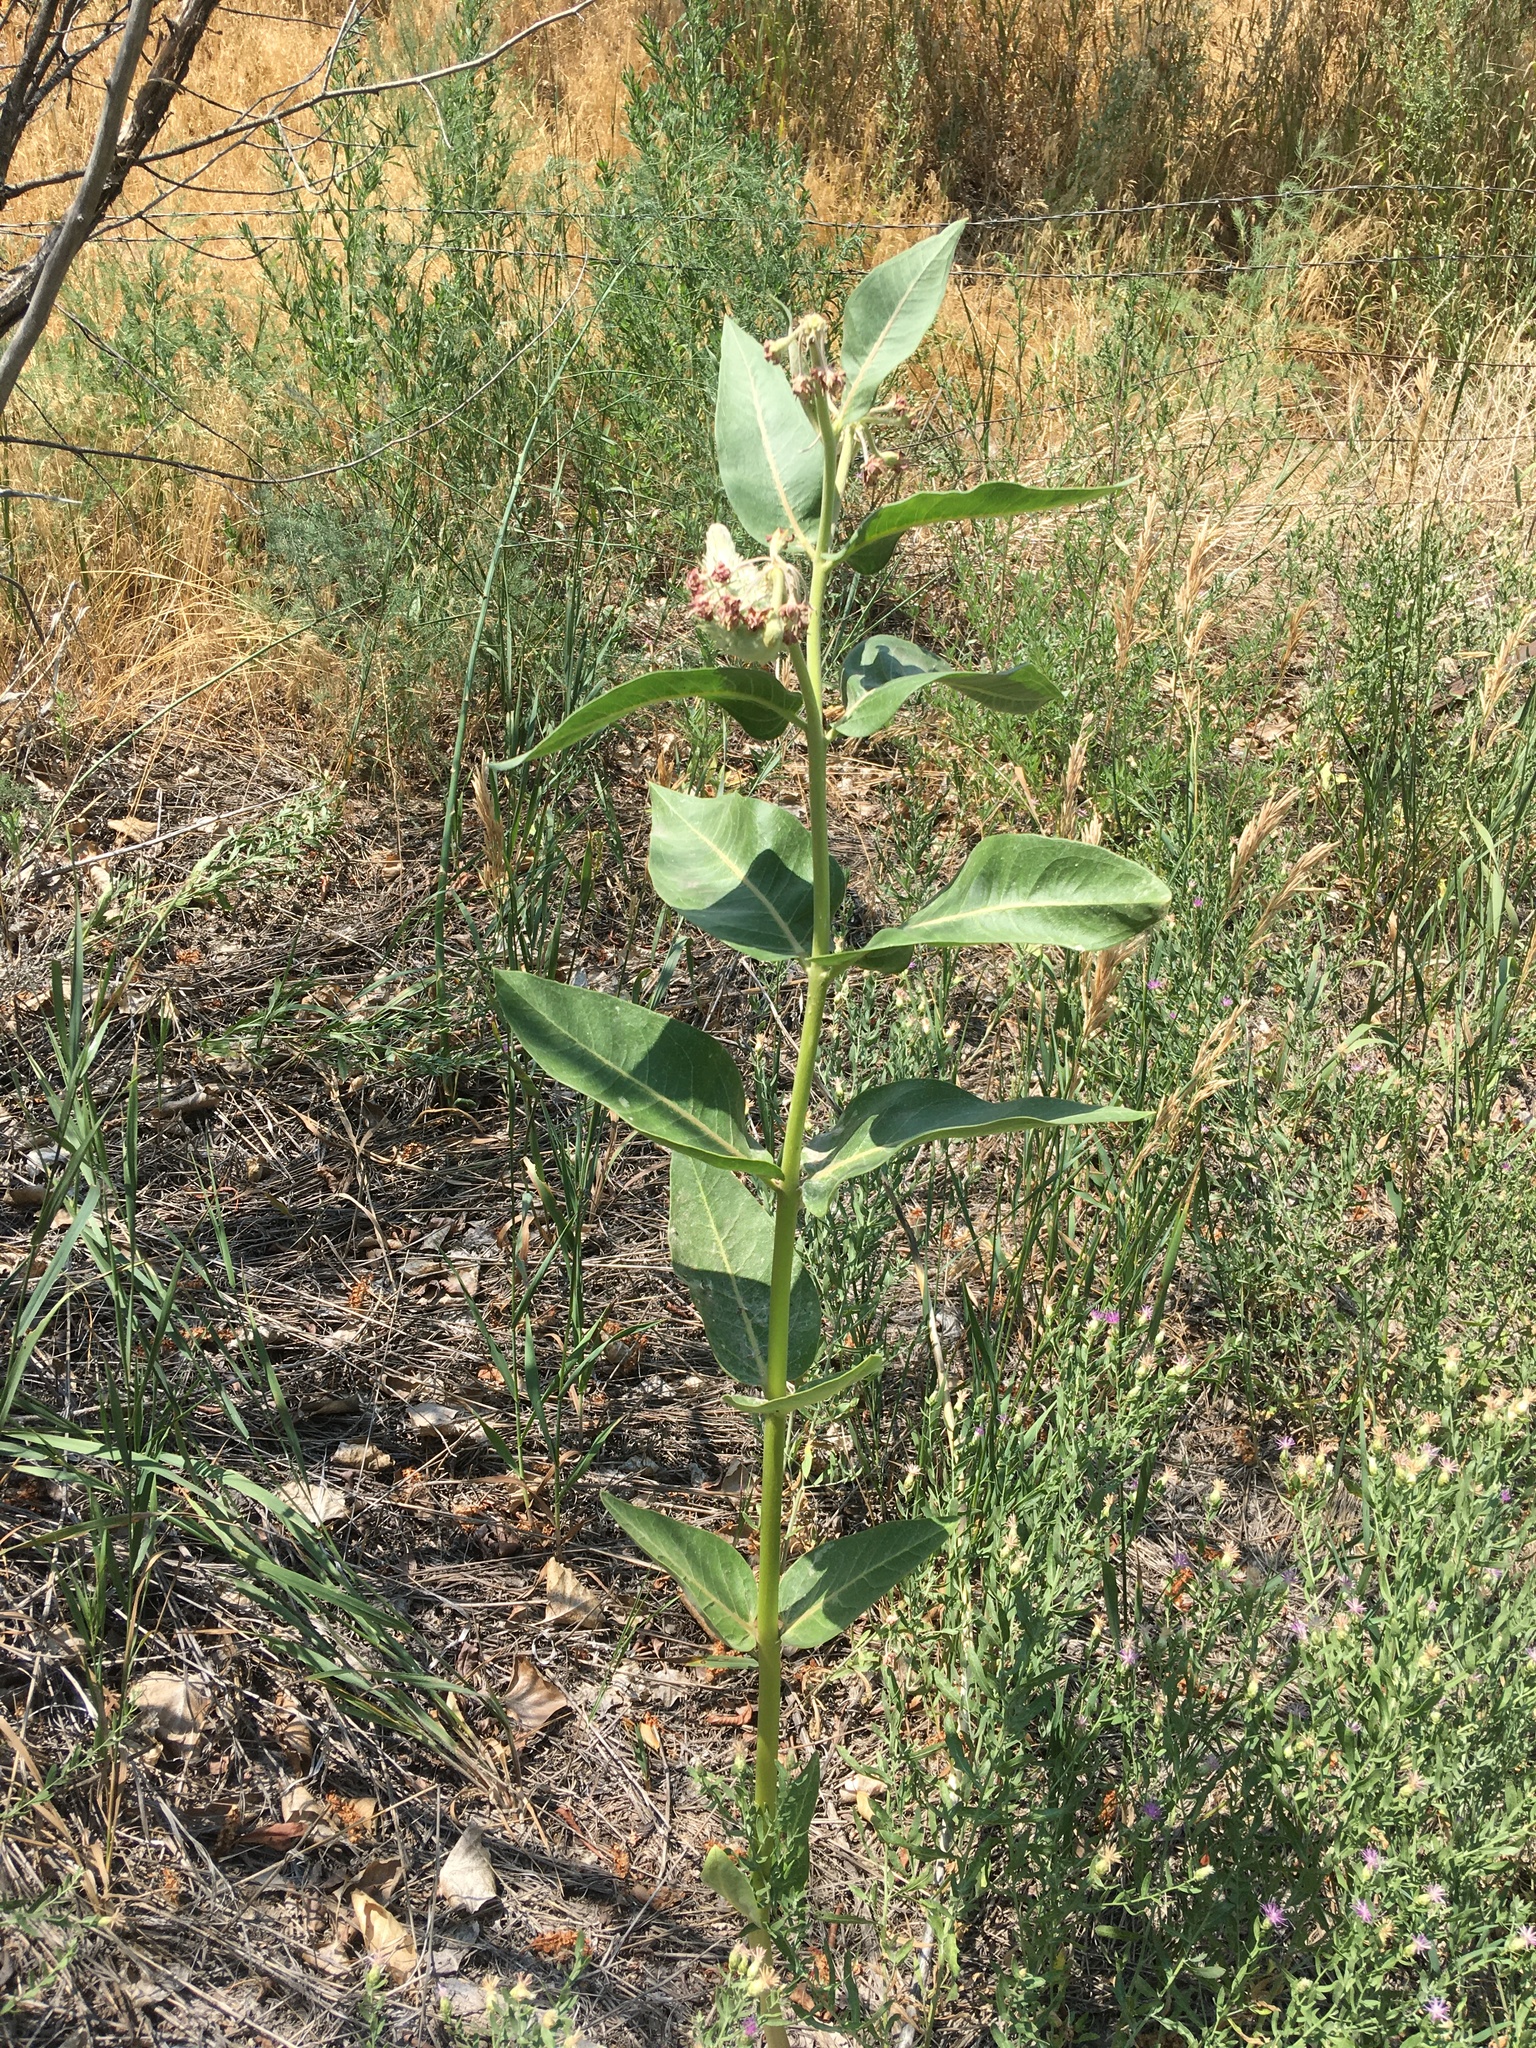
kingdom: Plantae
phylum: Tracheophyta
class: Magnoliopsida
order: Gentianales
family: Apocynaceae
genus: Asclepias
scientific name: Asclepias speciosa
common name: Showy milkweed
